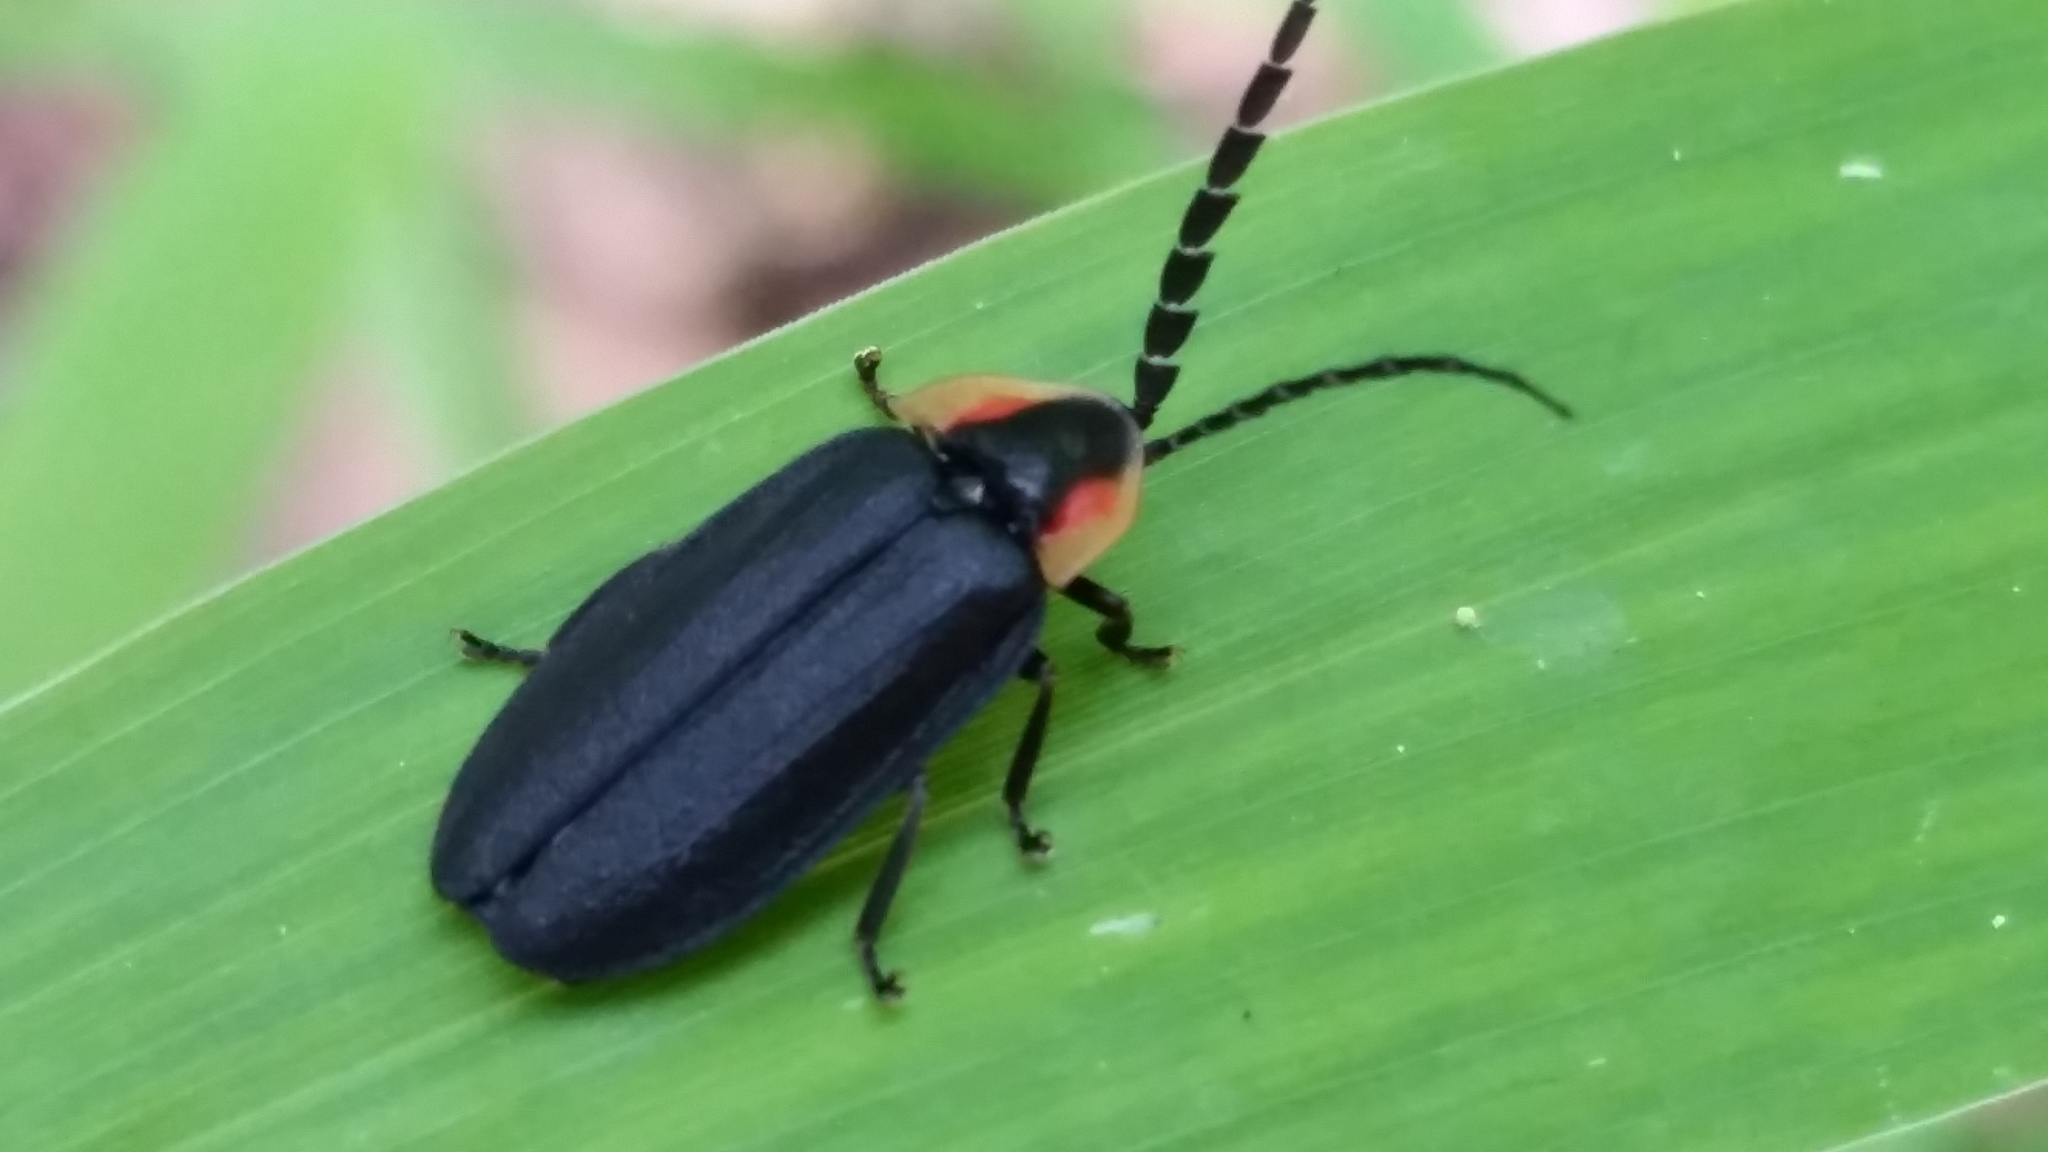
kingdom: Animalia
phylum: Arthropoda
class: Insecta
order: Coleoptera
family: Lampyridae
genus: Lucidota
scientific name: Lucidota atra
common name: Black firefly
